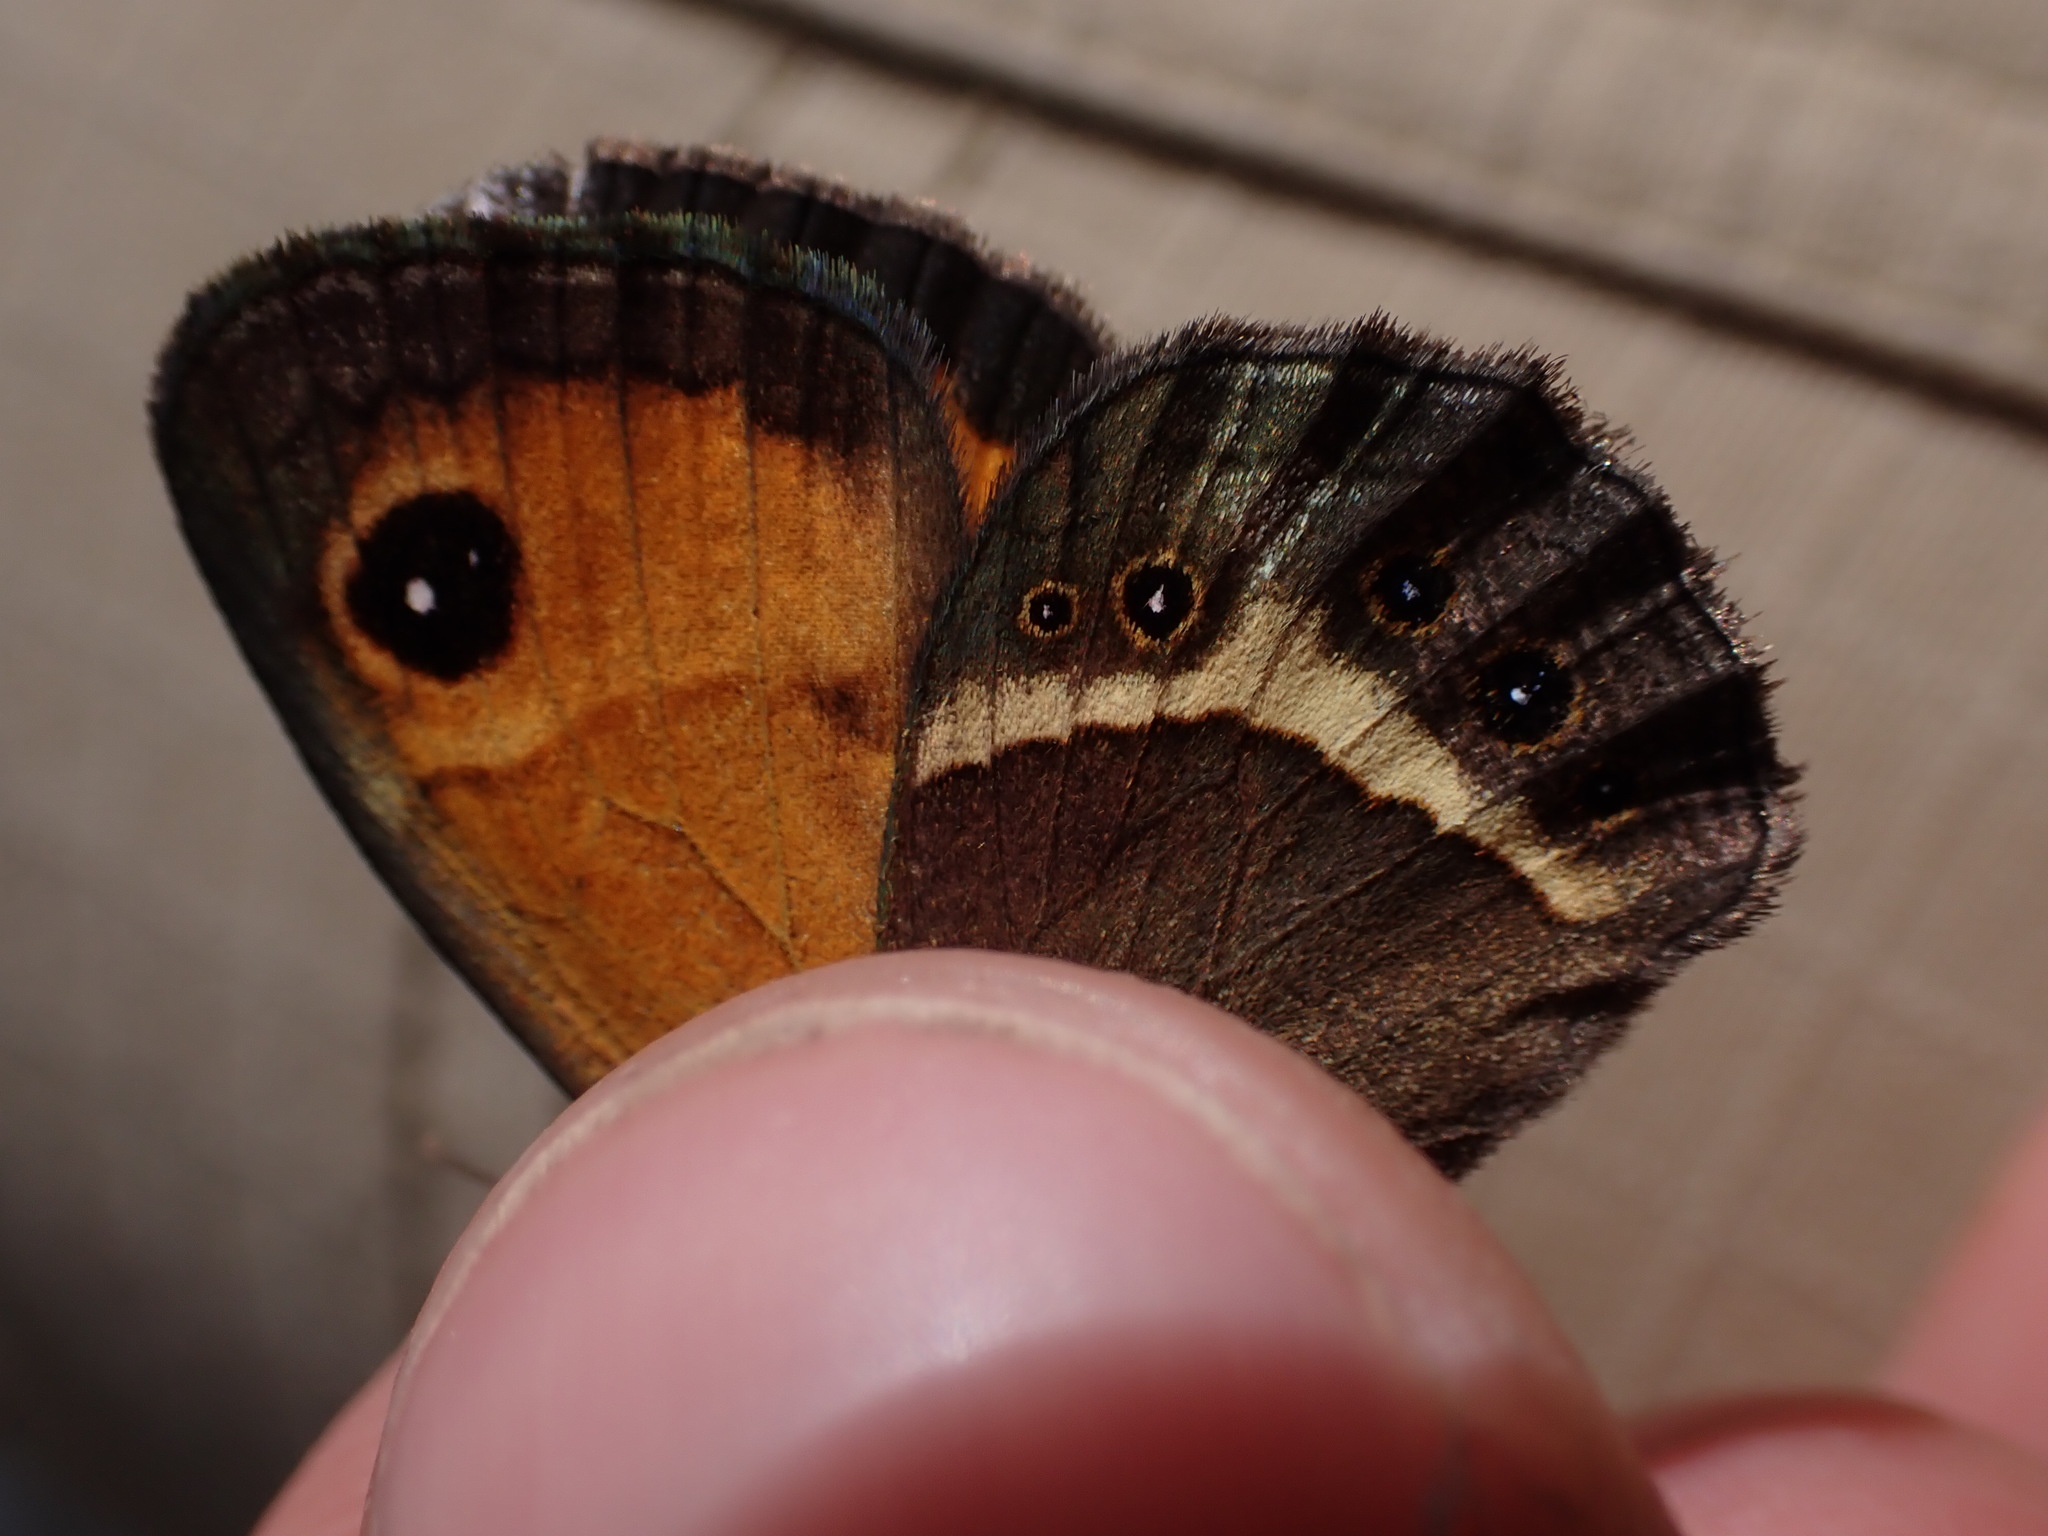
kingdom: Animalia
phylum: Arthropoda
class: Insecta
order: Lepidoptera
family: Nymphalidae
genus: Pyronia
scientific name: Pyronia bathseba
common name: Spanish gatekeeper
